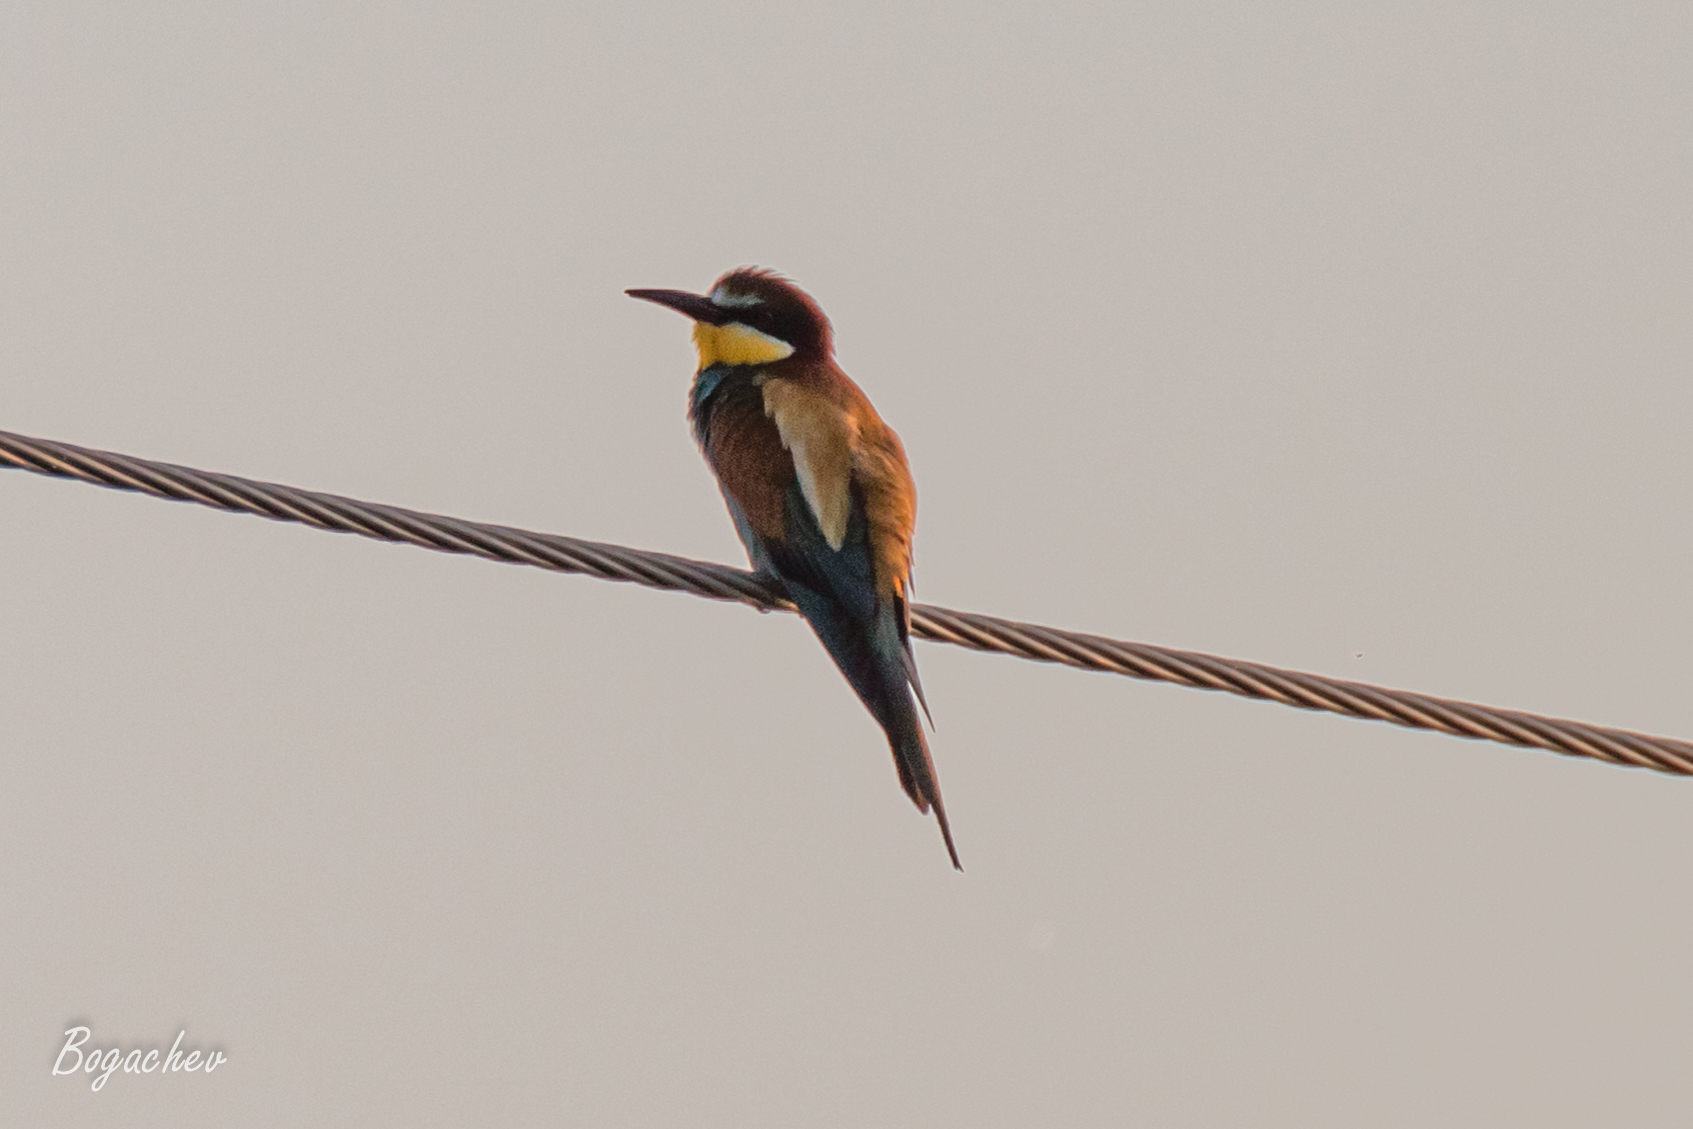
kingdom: Animalia
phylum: Chordata
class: Aves
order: Coraciiformes
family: Meropidae
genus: Merops
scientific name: Merops apiaster
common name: European bee-eater
